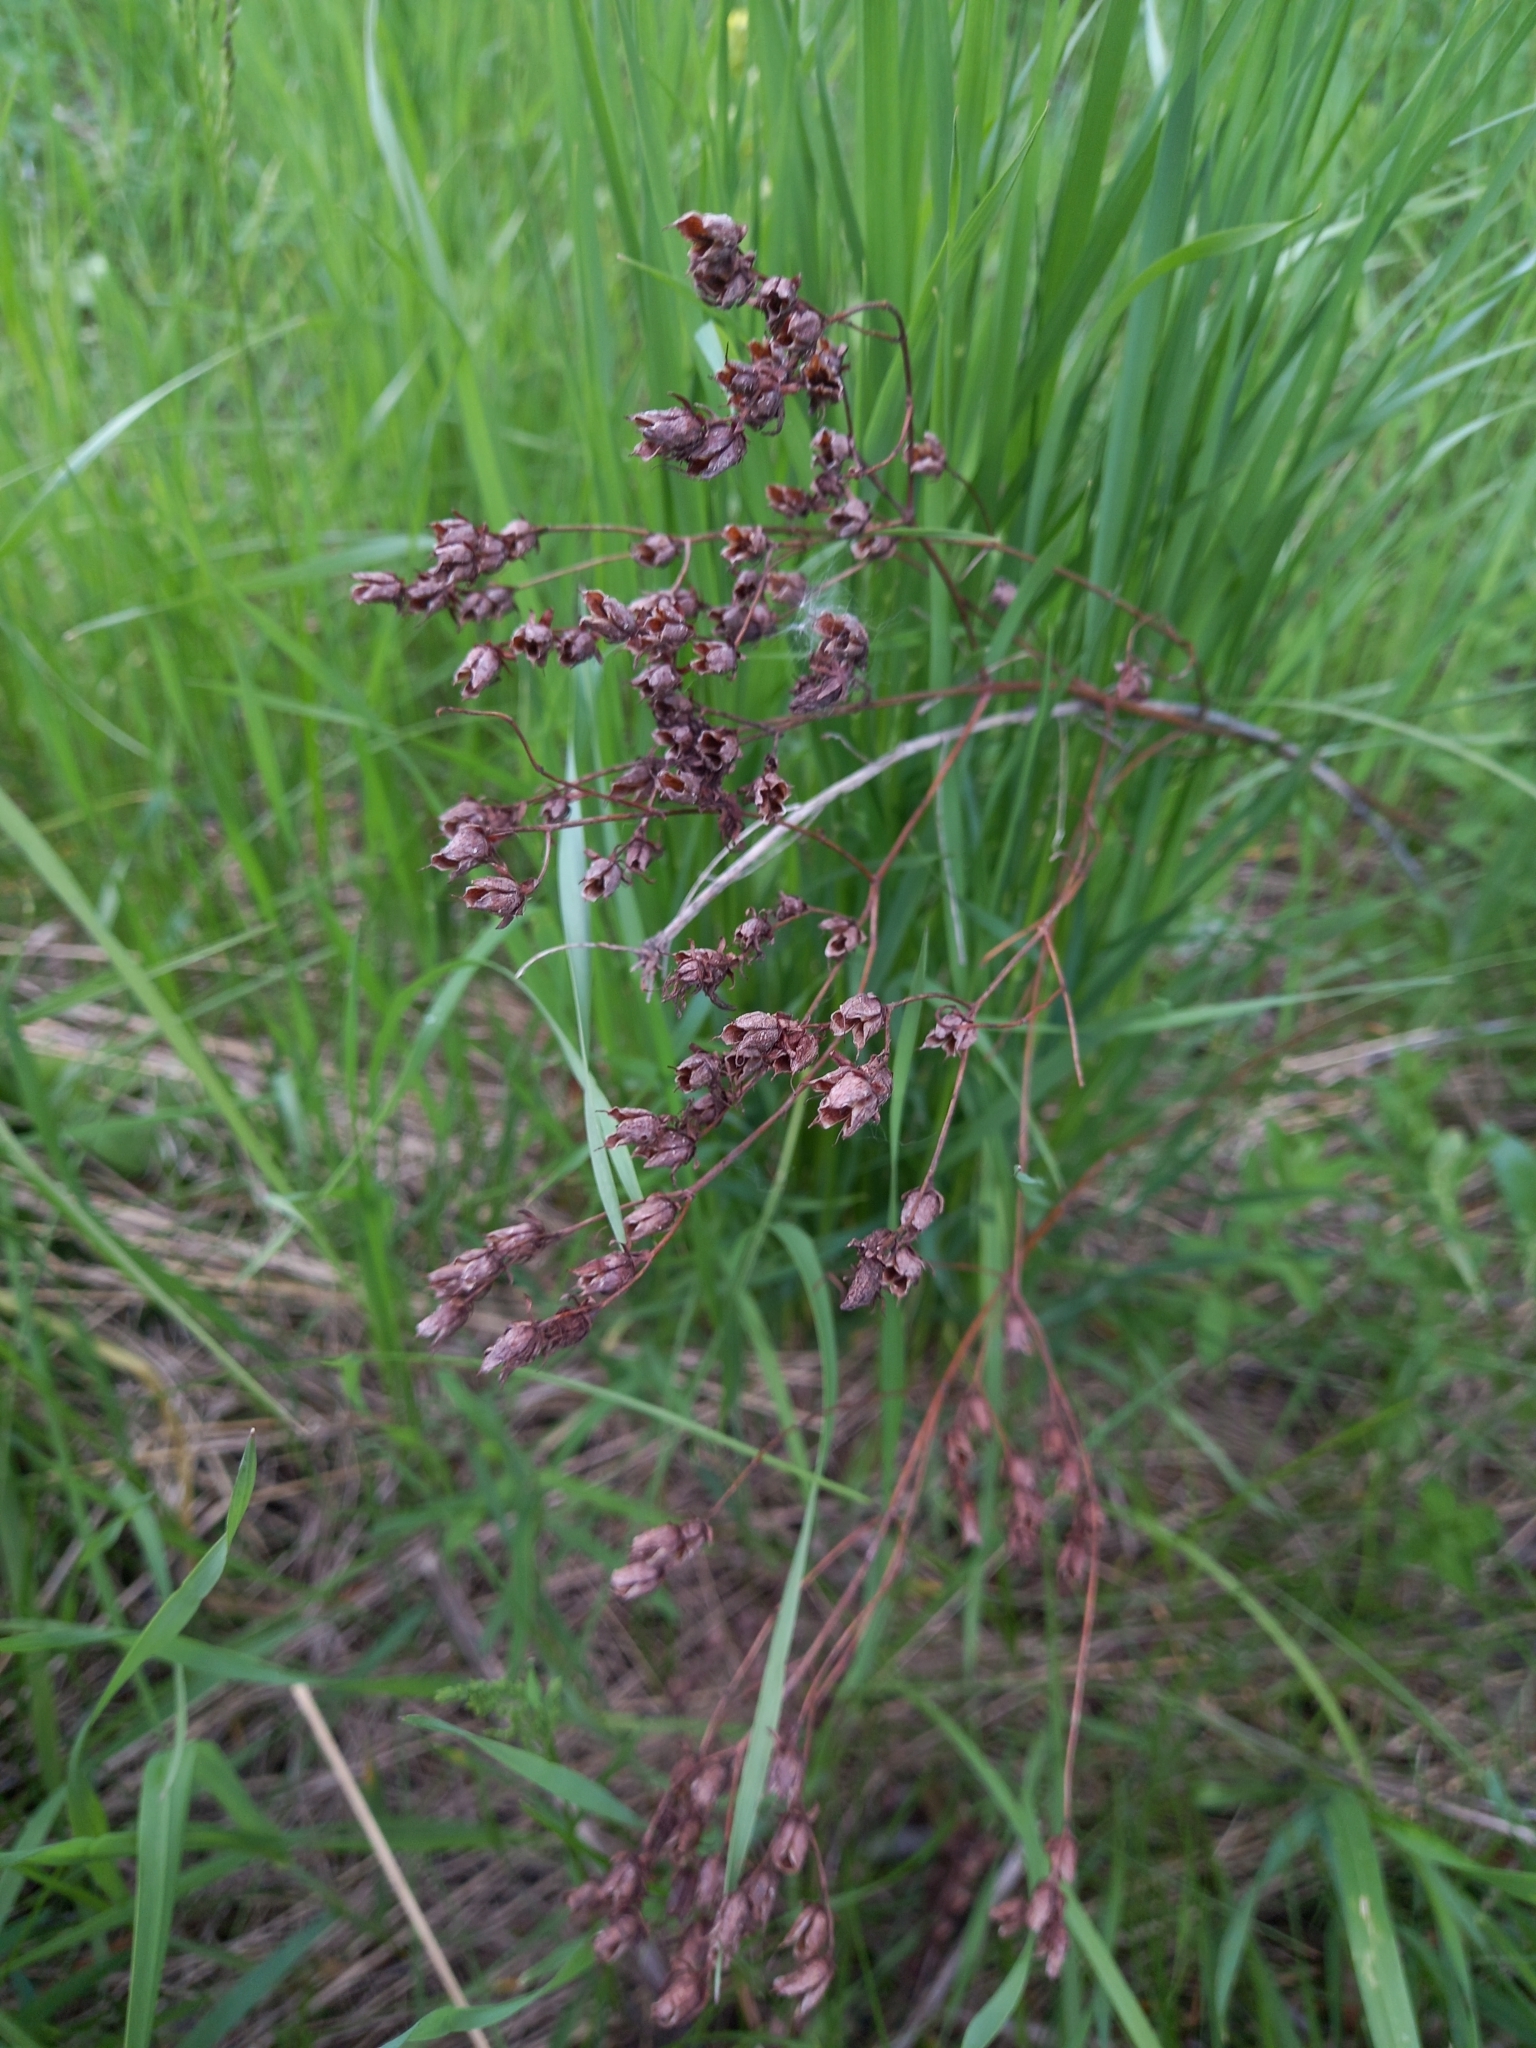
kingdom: Plantae
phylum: Tracheophyta
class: Magnoliopsida
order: Malpighiales
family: Hypericaceae
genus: Hypericum
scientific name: Hypericum perforatum
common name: Common st. johnswort
